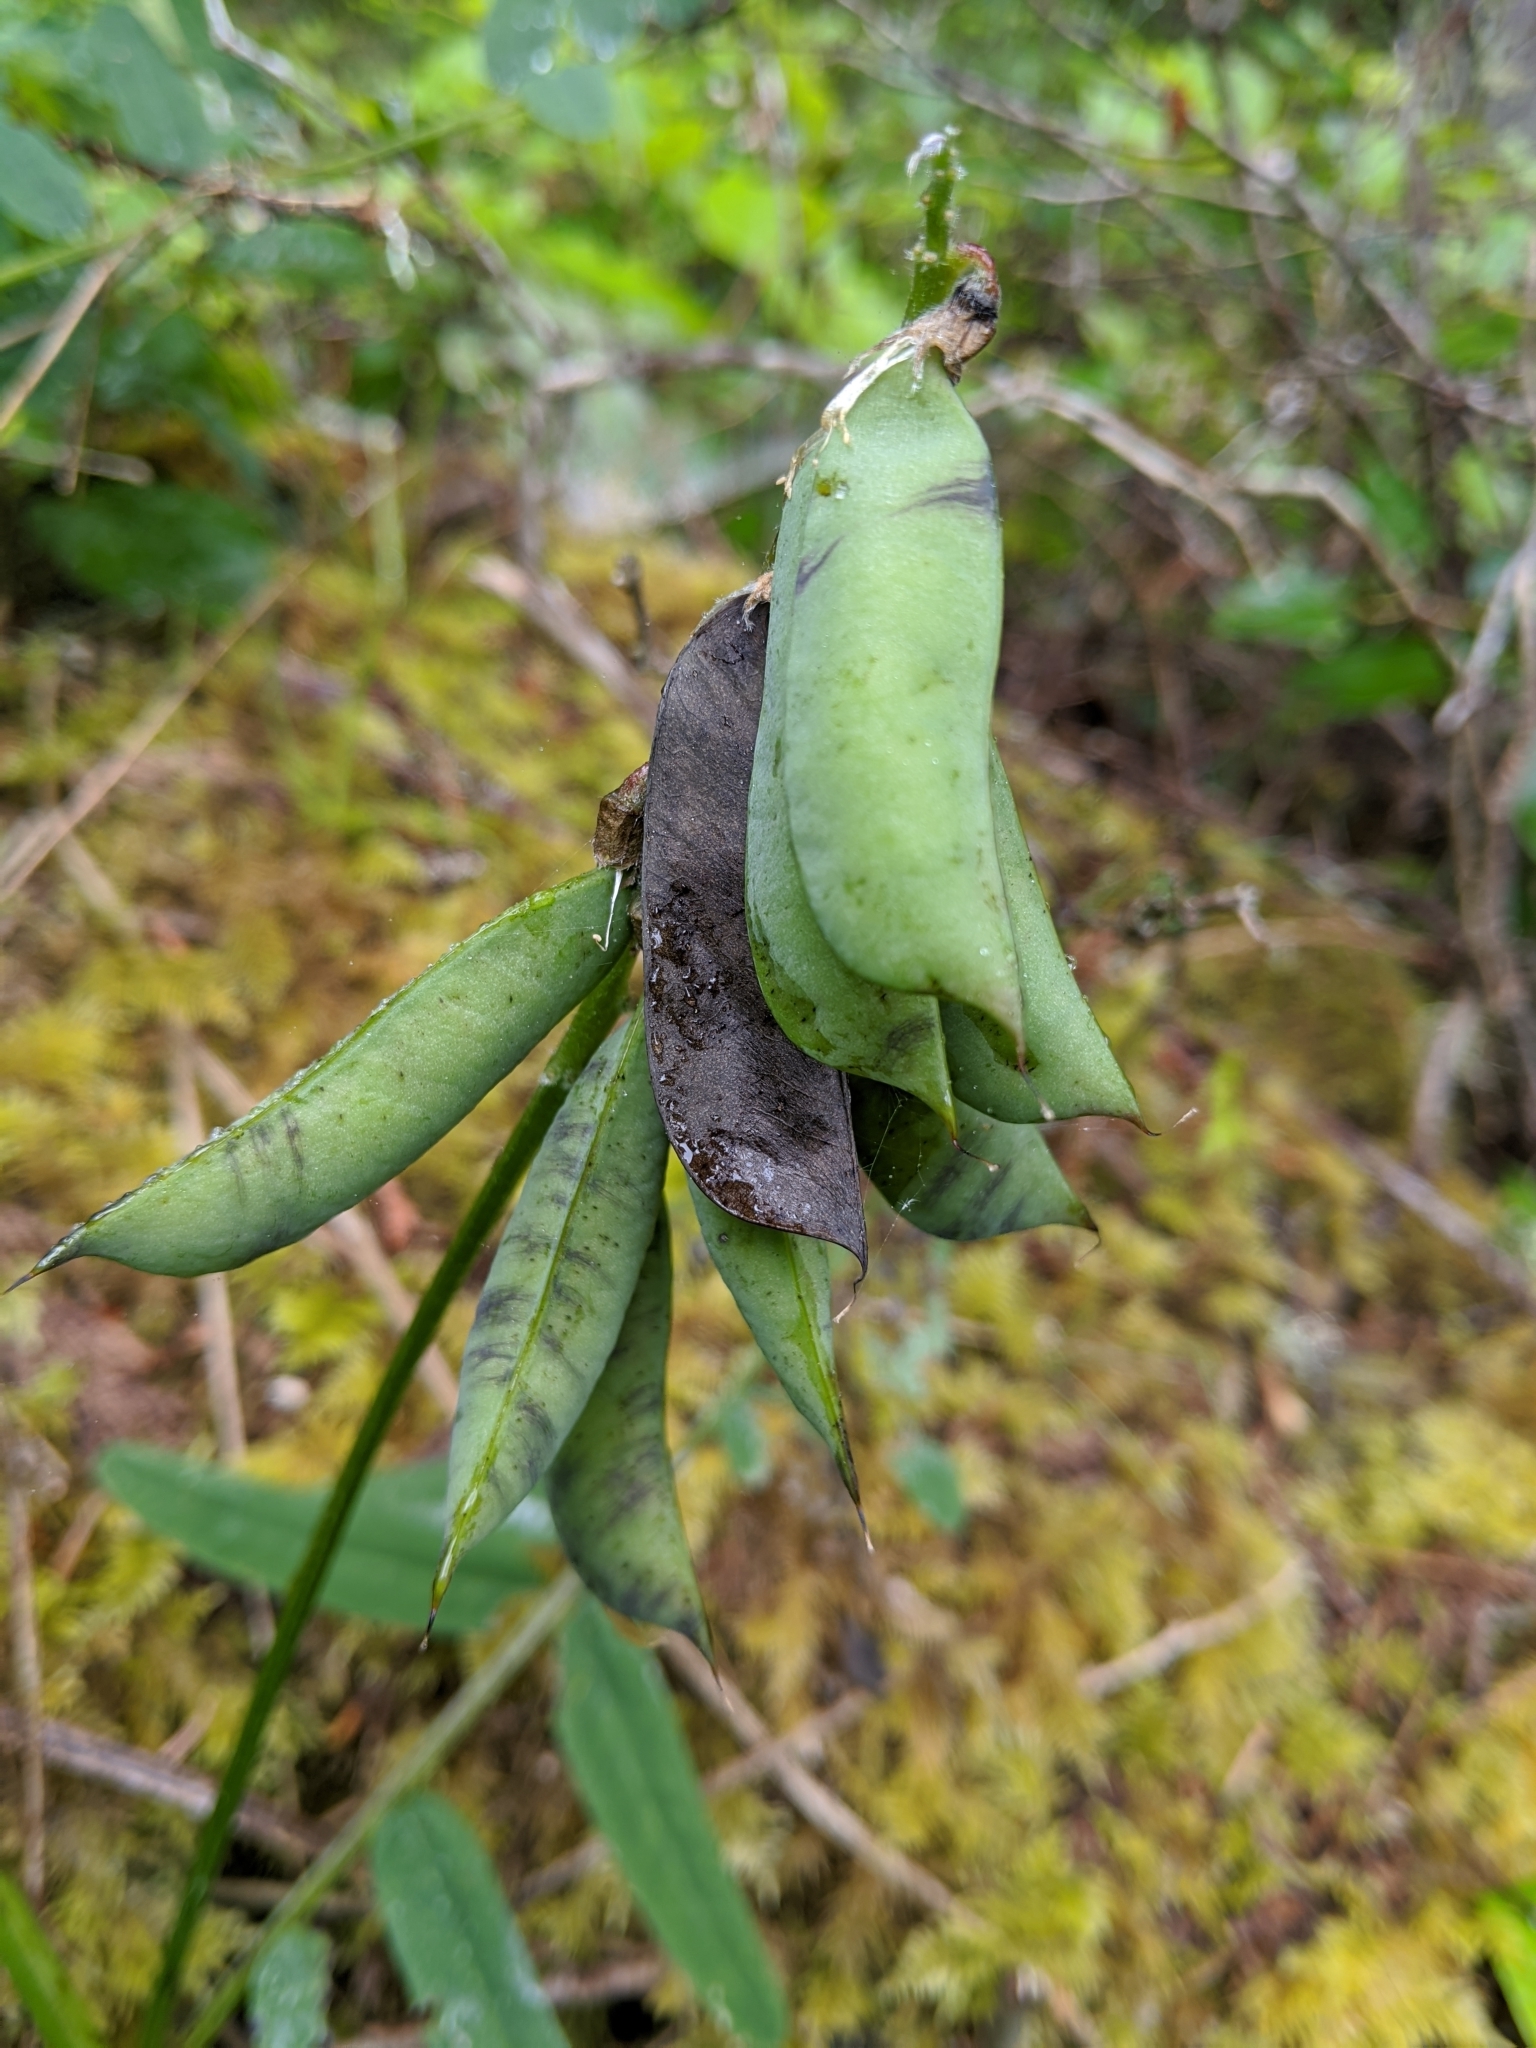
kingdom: Plantae
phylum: Tracheophyta
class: Magnoliopsida
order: Fabales
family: Fabaceae
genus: Vicia
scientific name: Vicia
